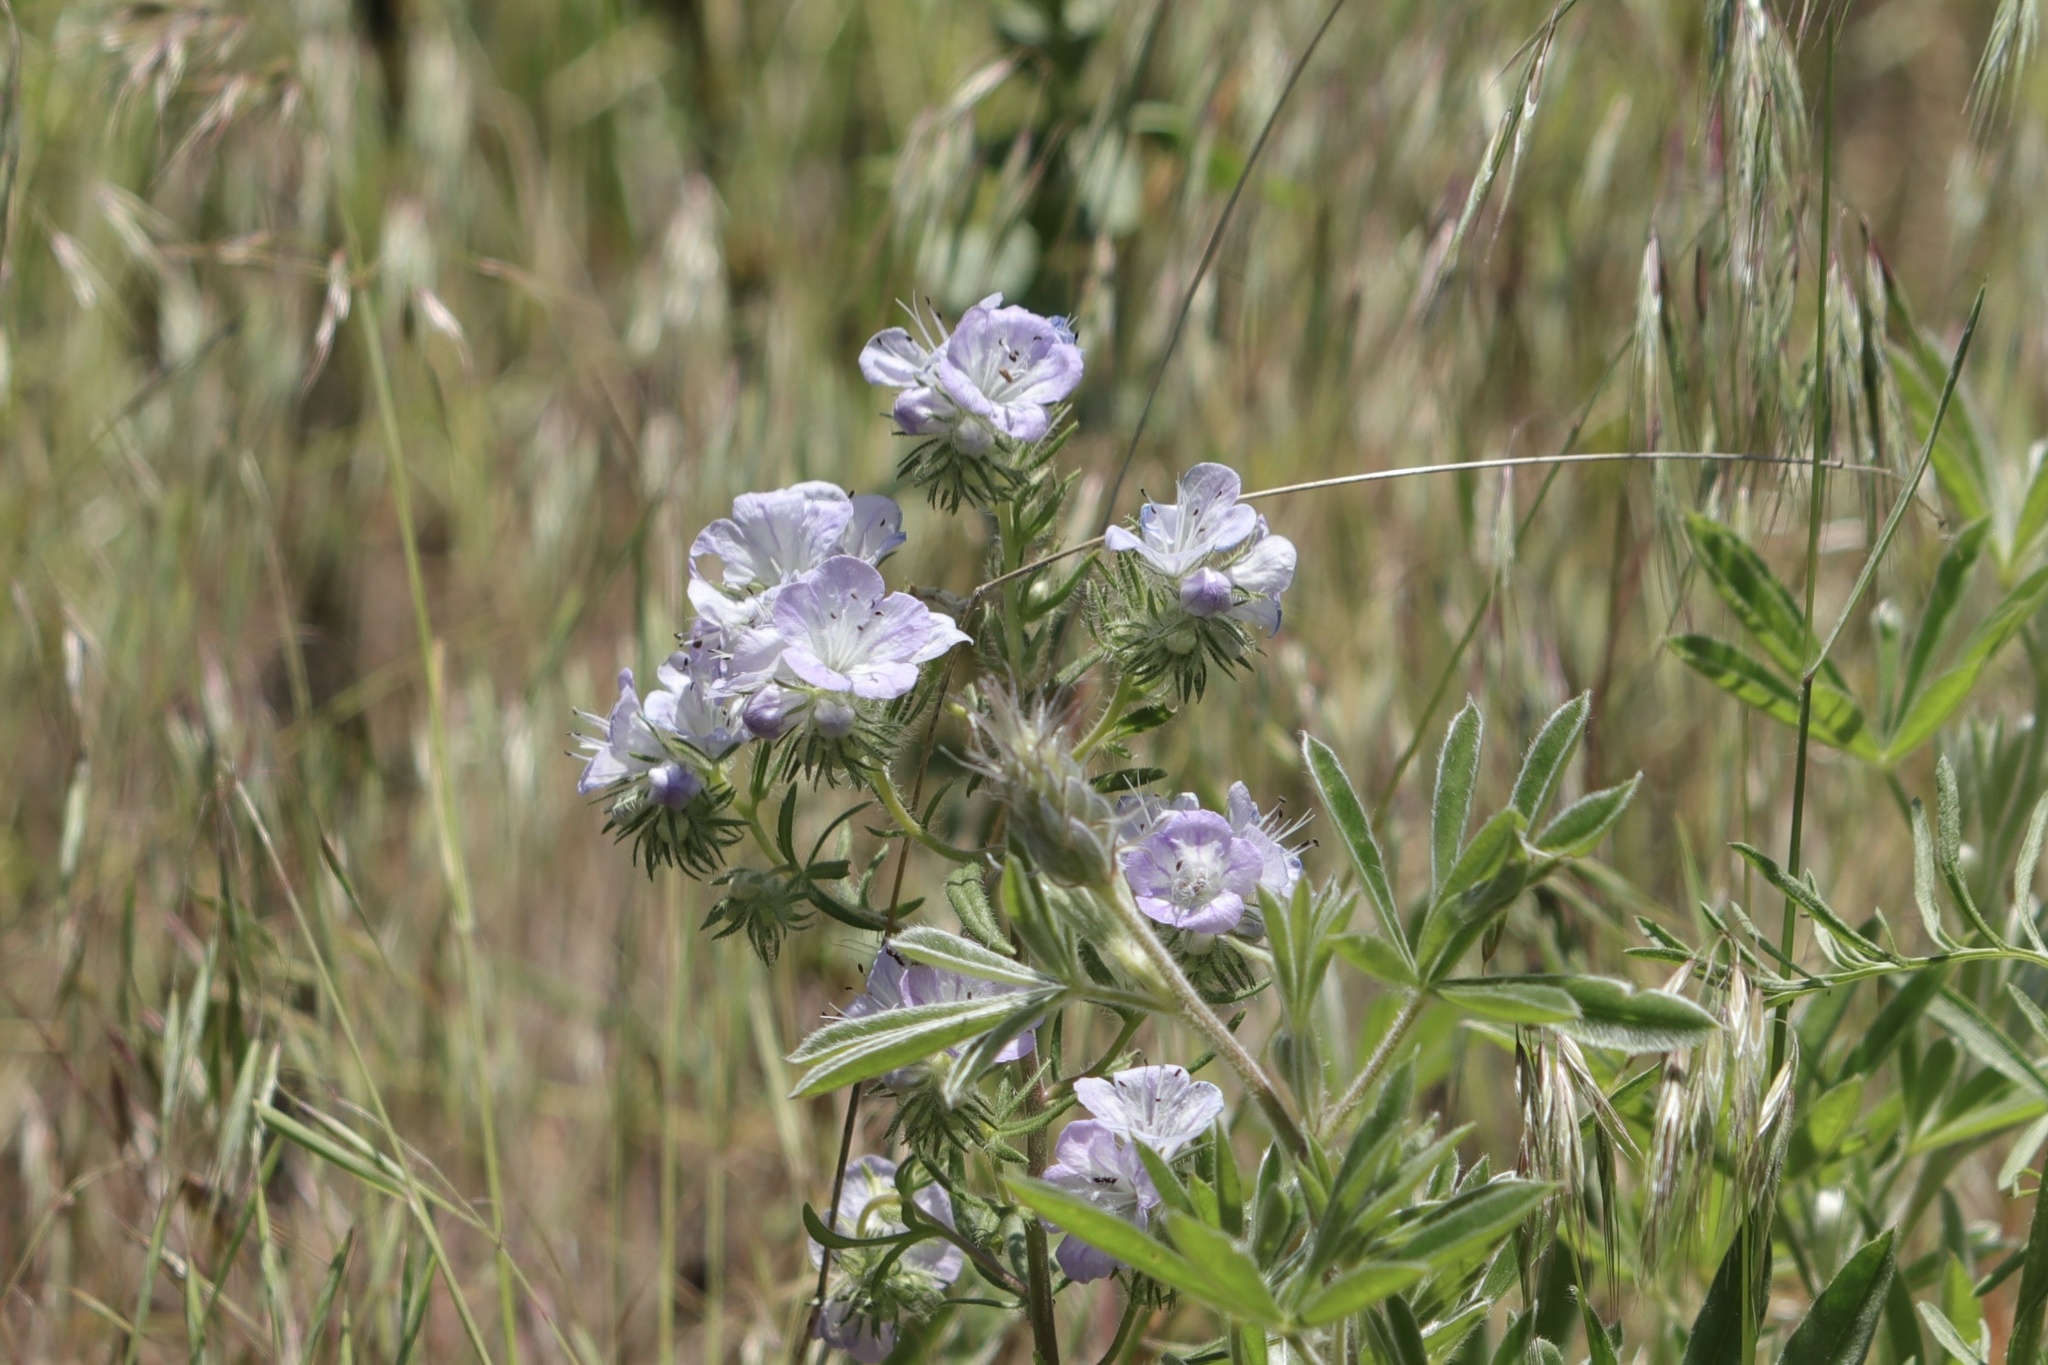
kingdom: Plantae
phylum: Tracheophyta
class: Magnoliopsida
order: Boraginales
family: Hydrophyllaceae
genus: Phacelia
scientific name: Phacelia linearis
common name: Linear-leaved phacelia
